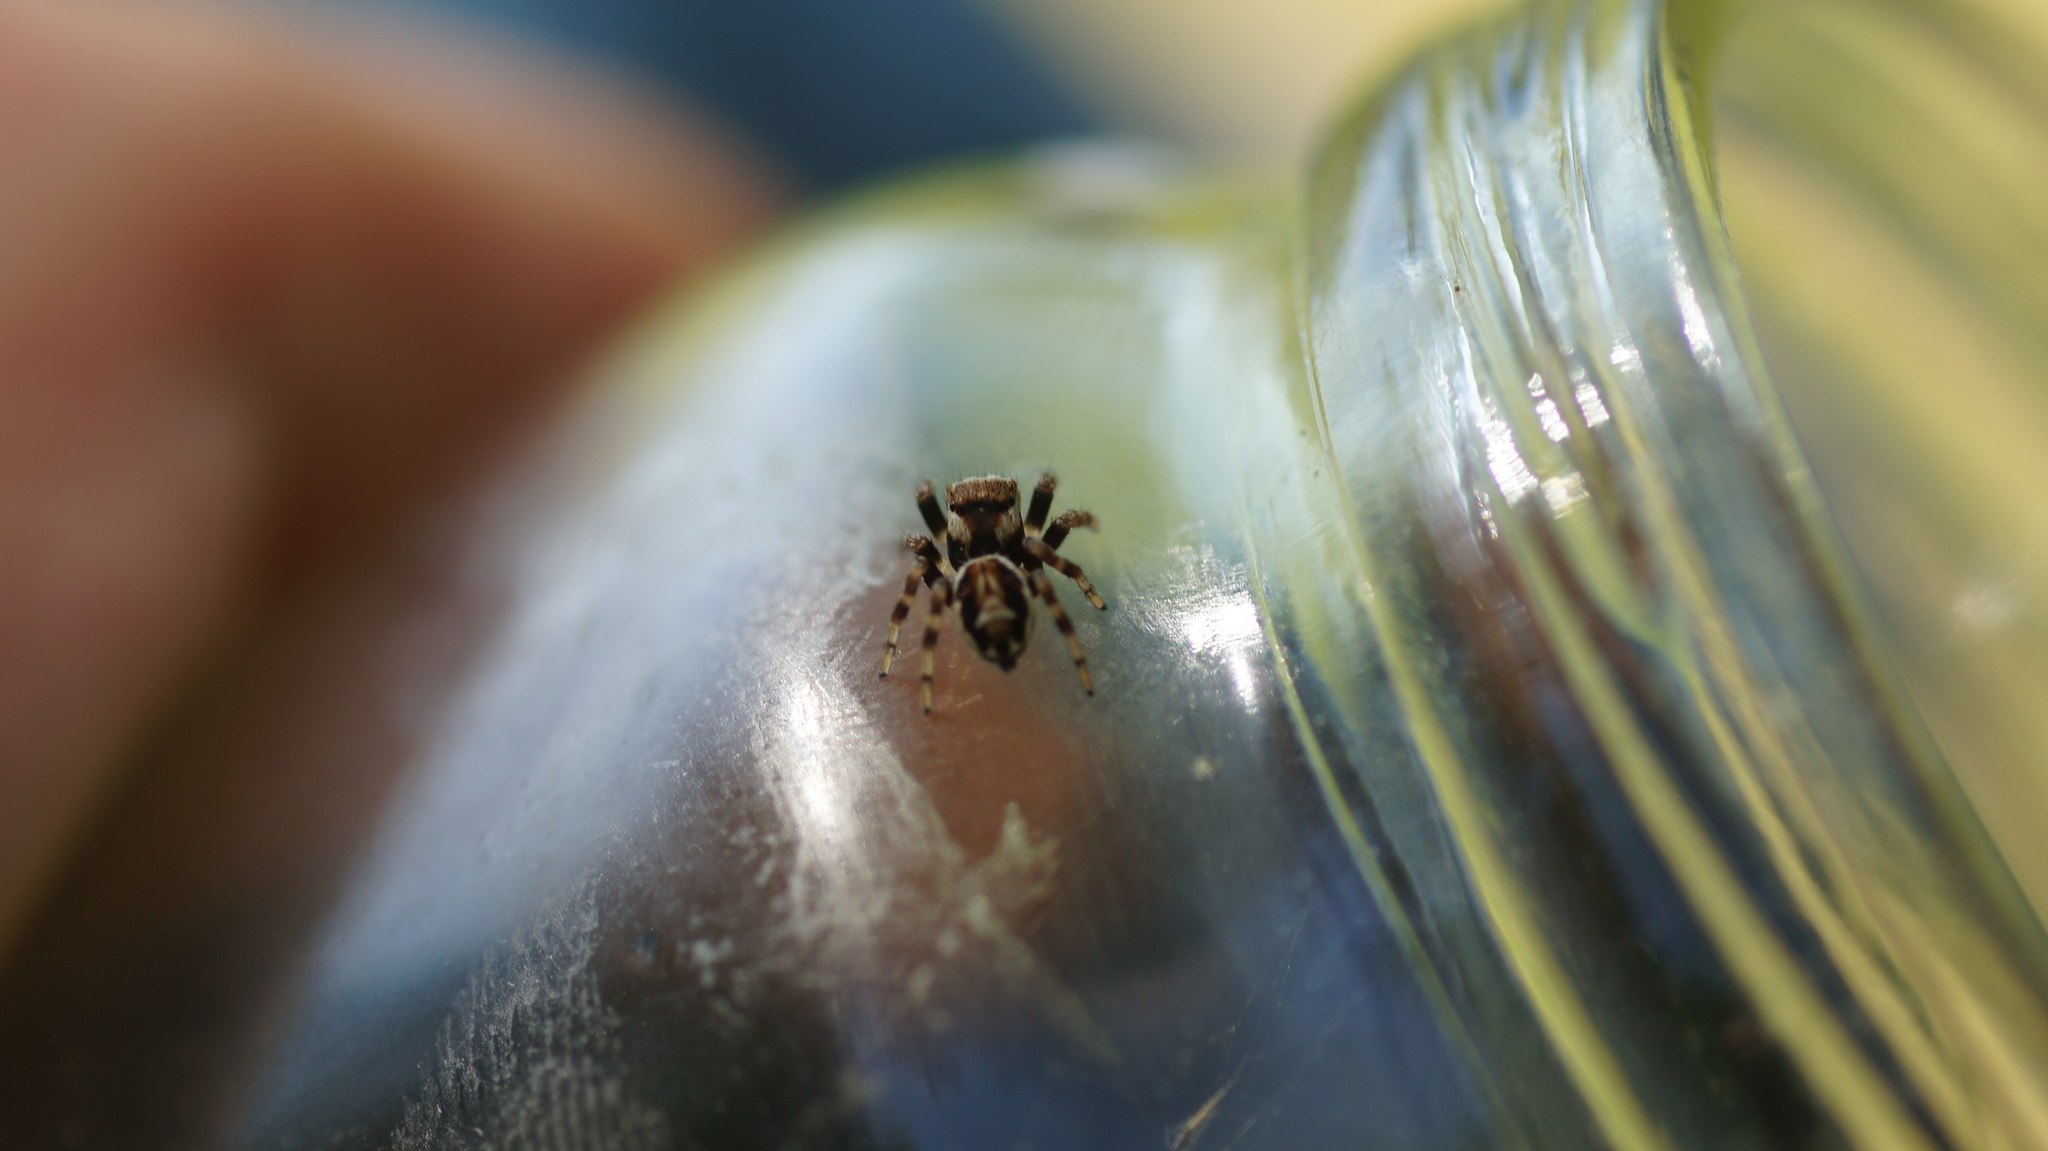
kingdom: Animalia
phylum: Arthropoda
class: Arachnida
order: Araneae
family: Salticidae
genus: Evarcha
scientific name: Evarcha falcata
